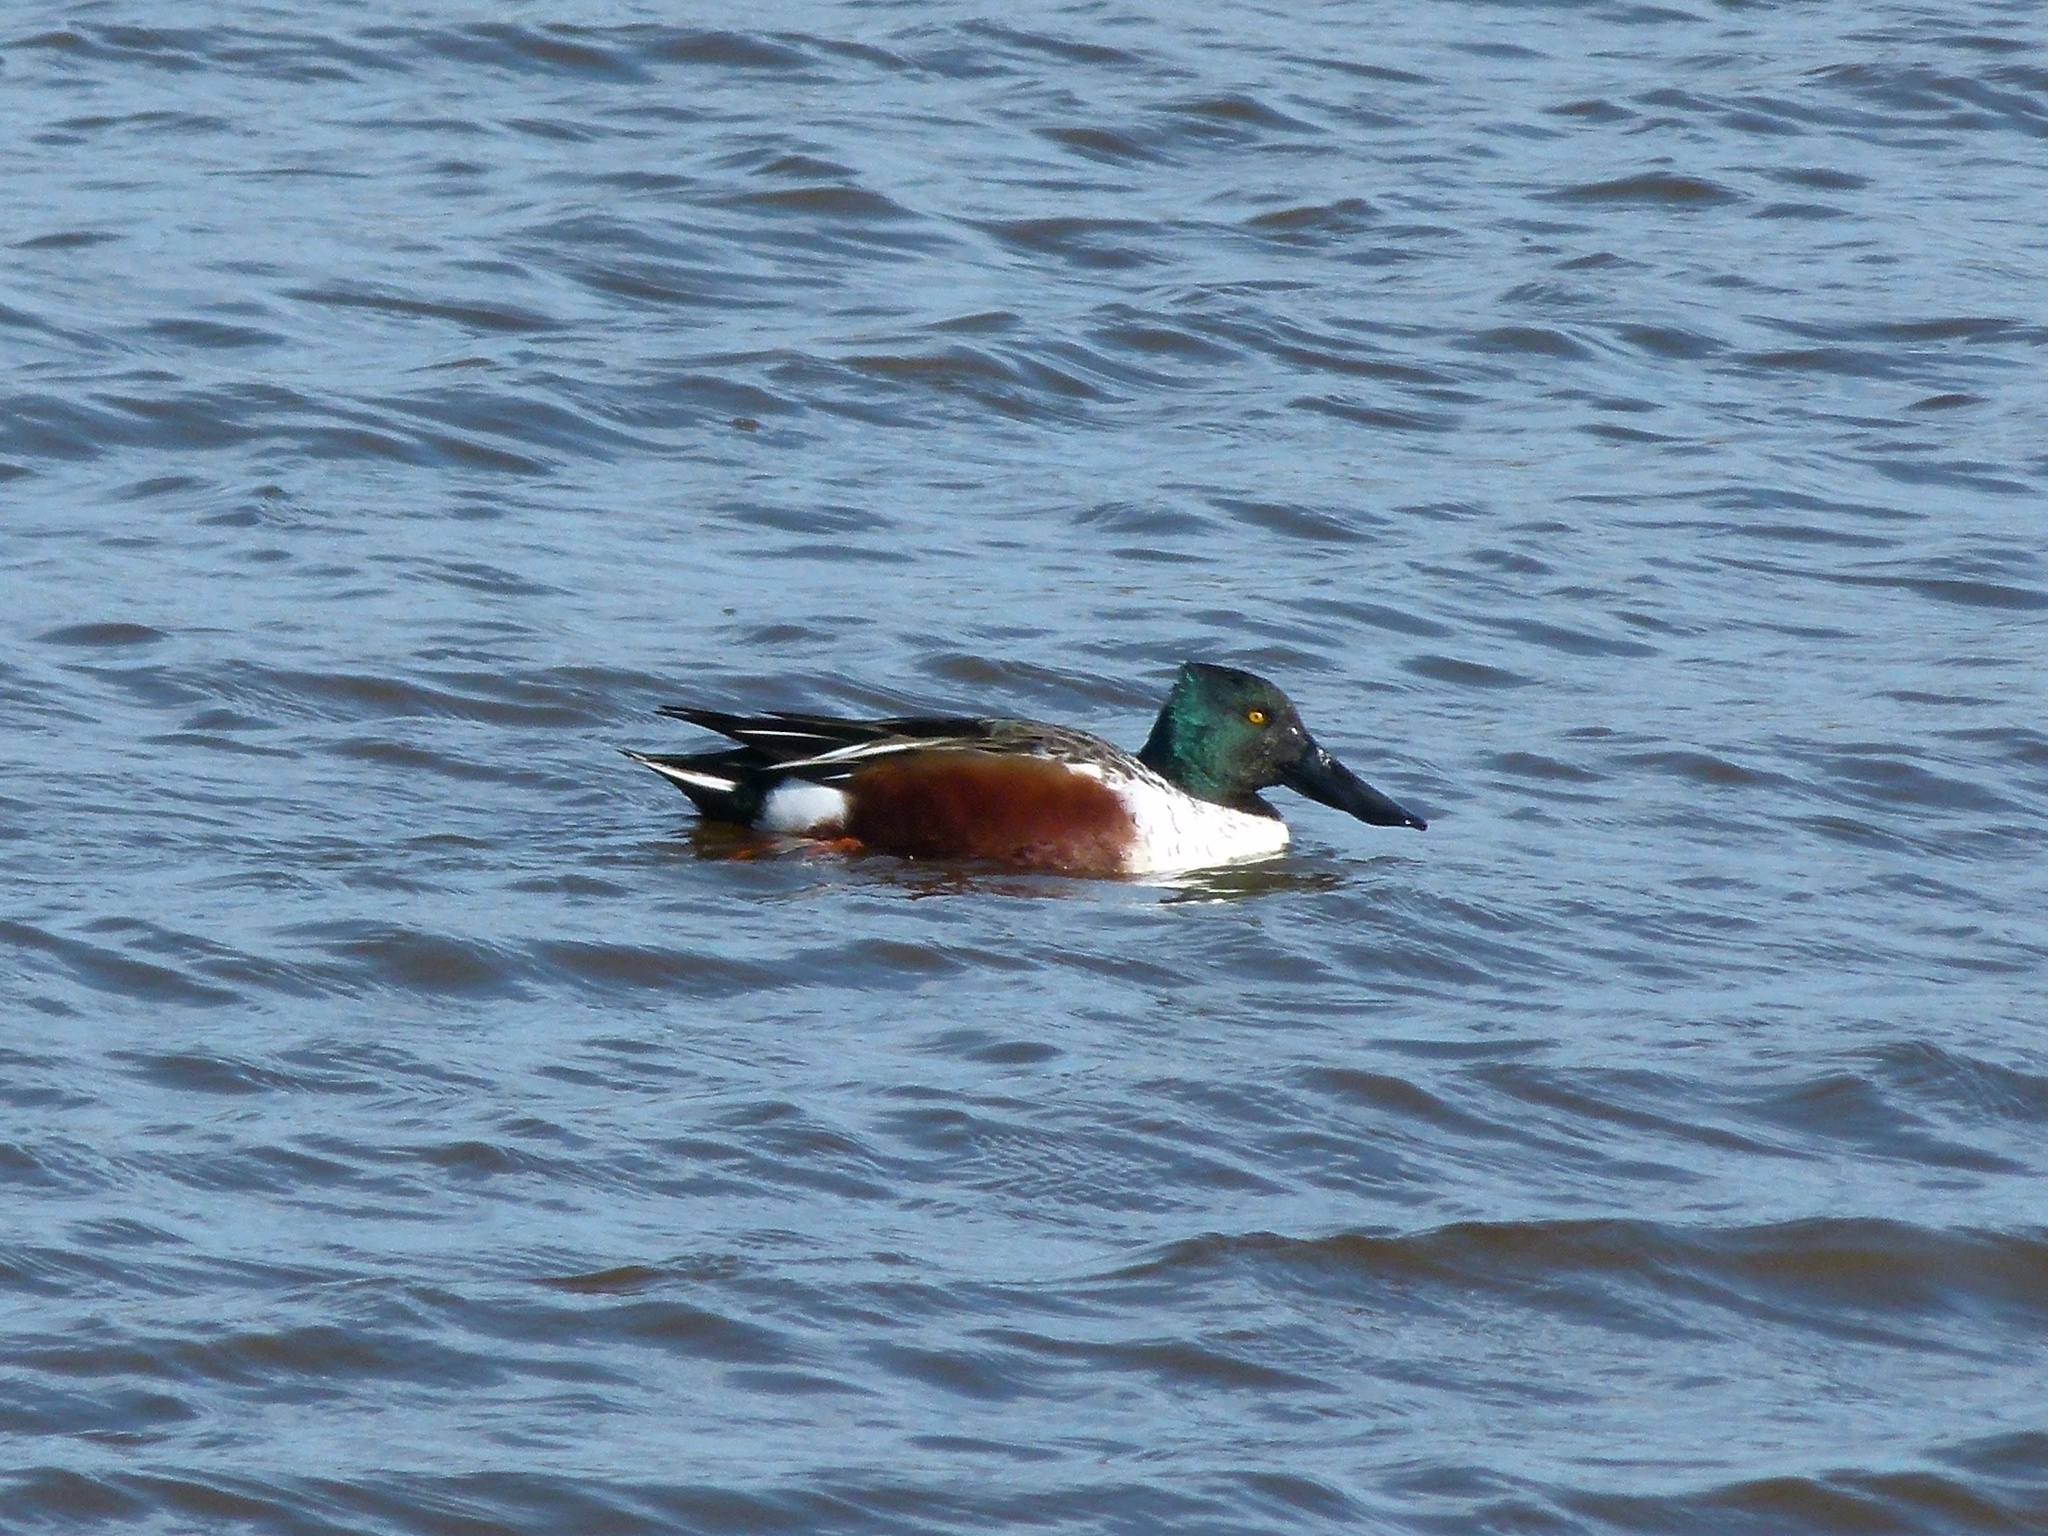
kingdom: Animalia
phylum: Chordata
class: Aves
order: Anseriformes
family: Anatidae
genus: Spatula
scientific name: Spatula clypeata
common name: Northern shoveler
